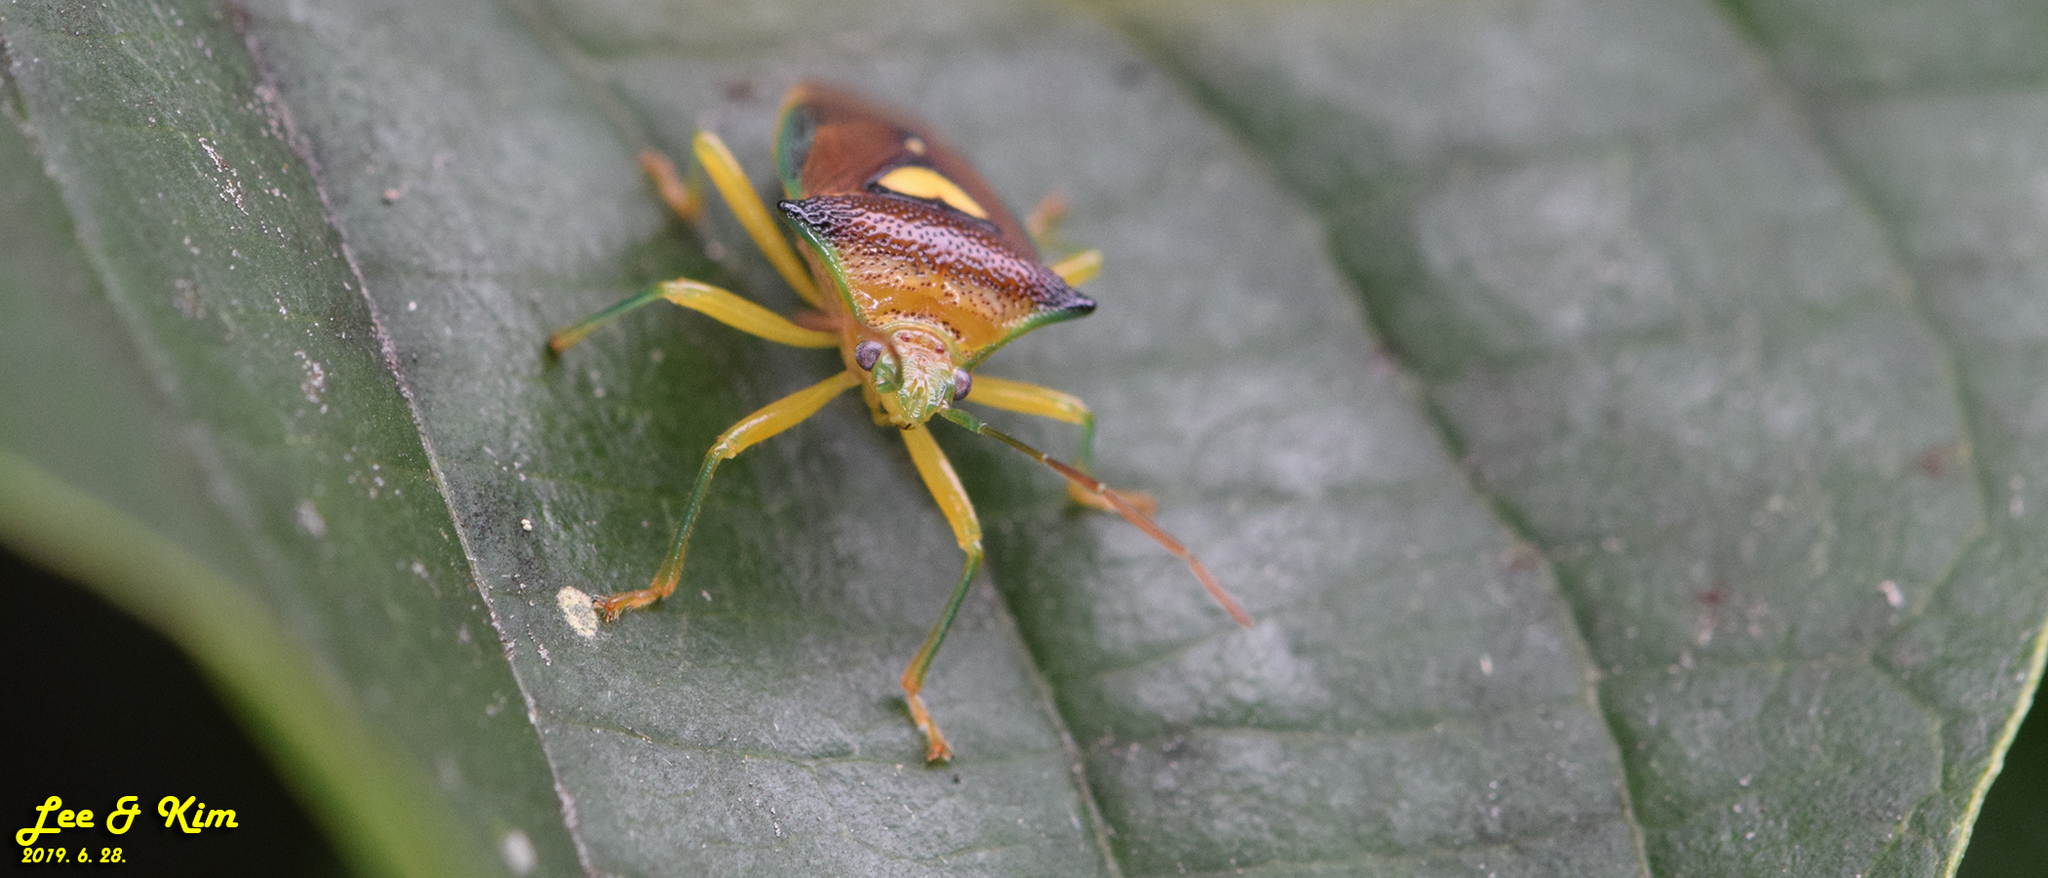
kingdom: Animalia
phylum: Arthropoda
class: Insecta
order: Hemiptera
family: Acanthosomatidae
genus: Sastragala
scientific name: Sastragala esakii
